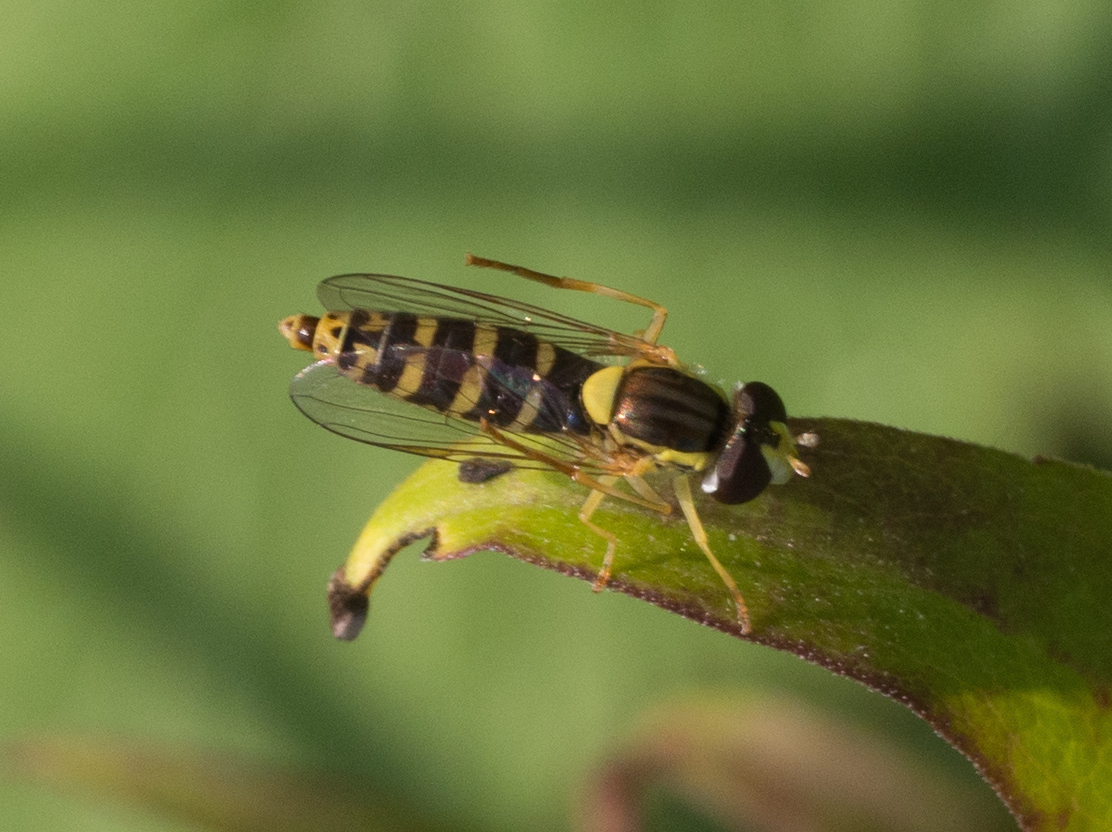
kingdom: Animalia
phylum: Arthropoda
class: Insecta
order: Diptera
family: Syrphidae
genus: Sphaerophoria
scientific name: Sphaerophoria
